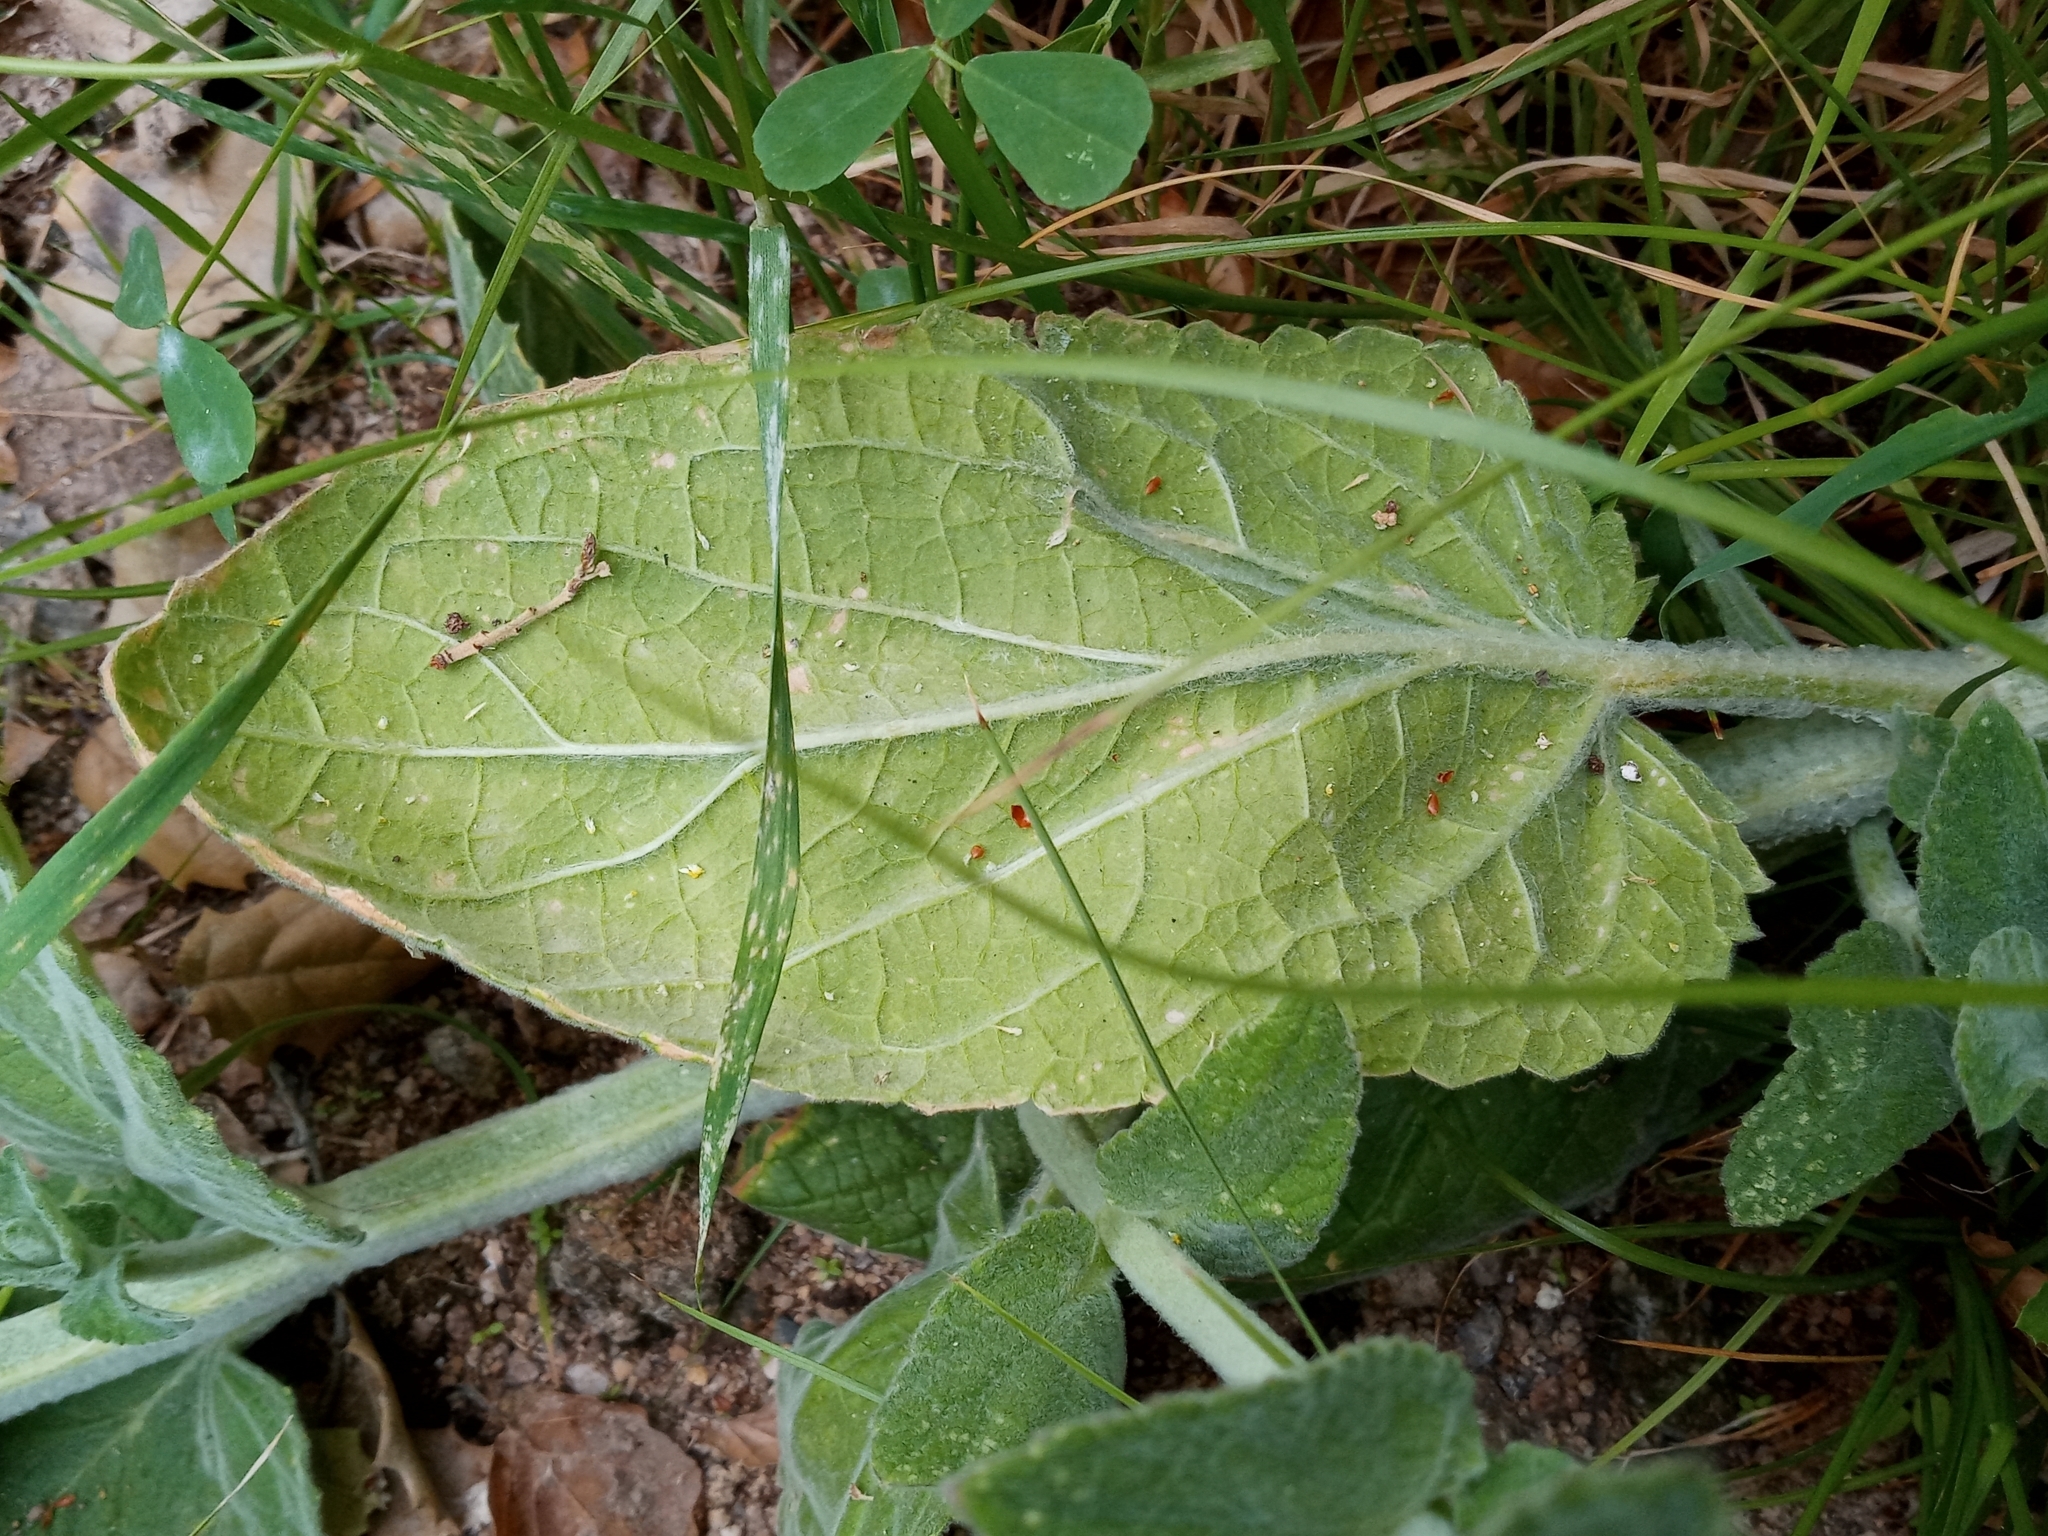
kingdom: Plantae
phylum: Tracheophyta
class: Magnoliopsida
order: Lamiales
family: Lamiaceae
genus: Stachys
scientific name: Stachys albens
